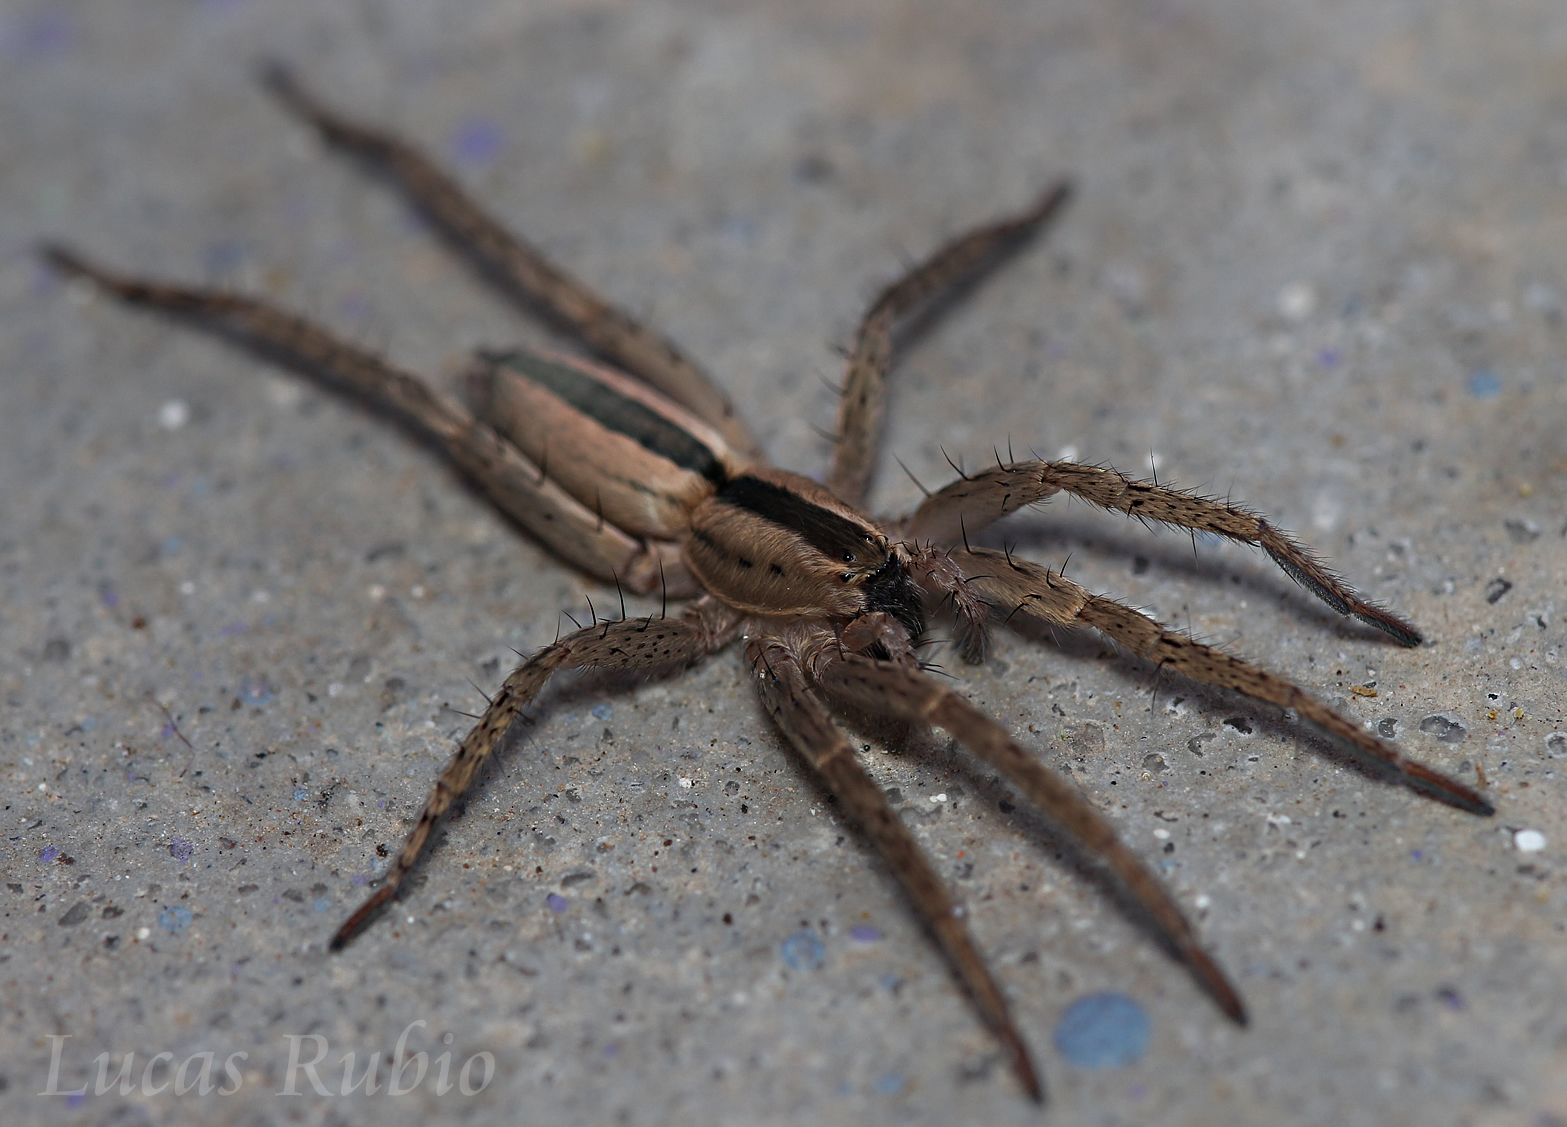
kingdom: Animalia
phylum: Arthropoda
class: Arachnida
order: Araneae
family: Anyphaenidae
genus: Arachosia
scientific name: Arachosia magna
